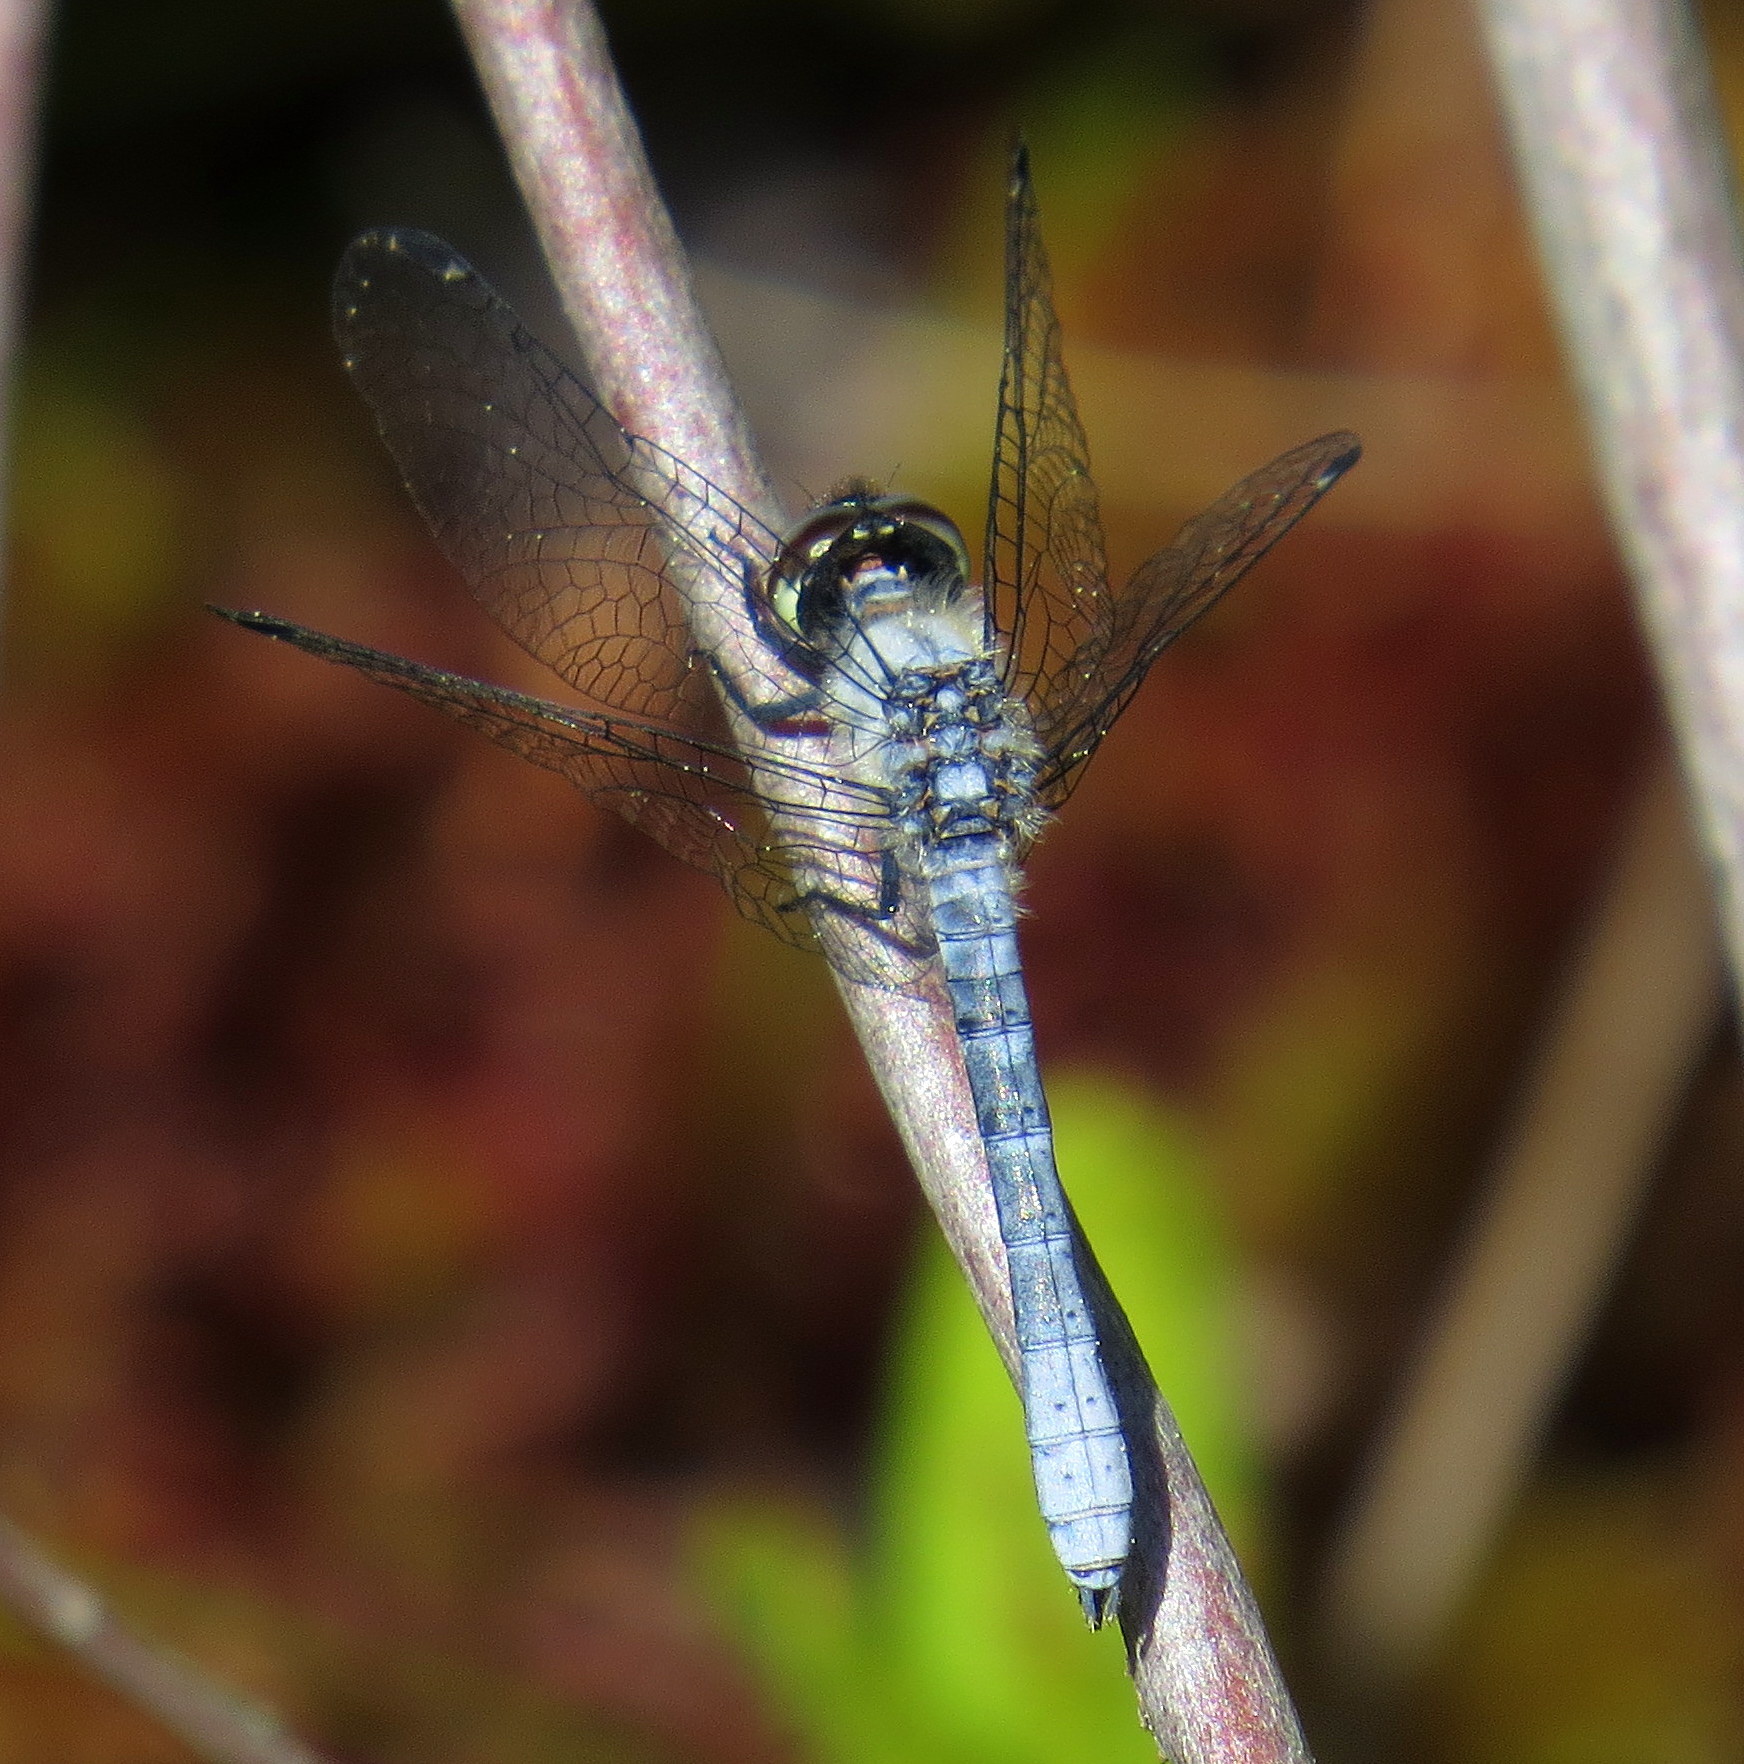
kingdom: Animalia
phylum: Arthropoda
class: Insecta
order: Odonata
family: Libellulidae
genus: Nannothemis
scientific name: Nannothemis bella
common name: Elfin skimmer
